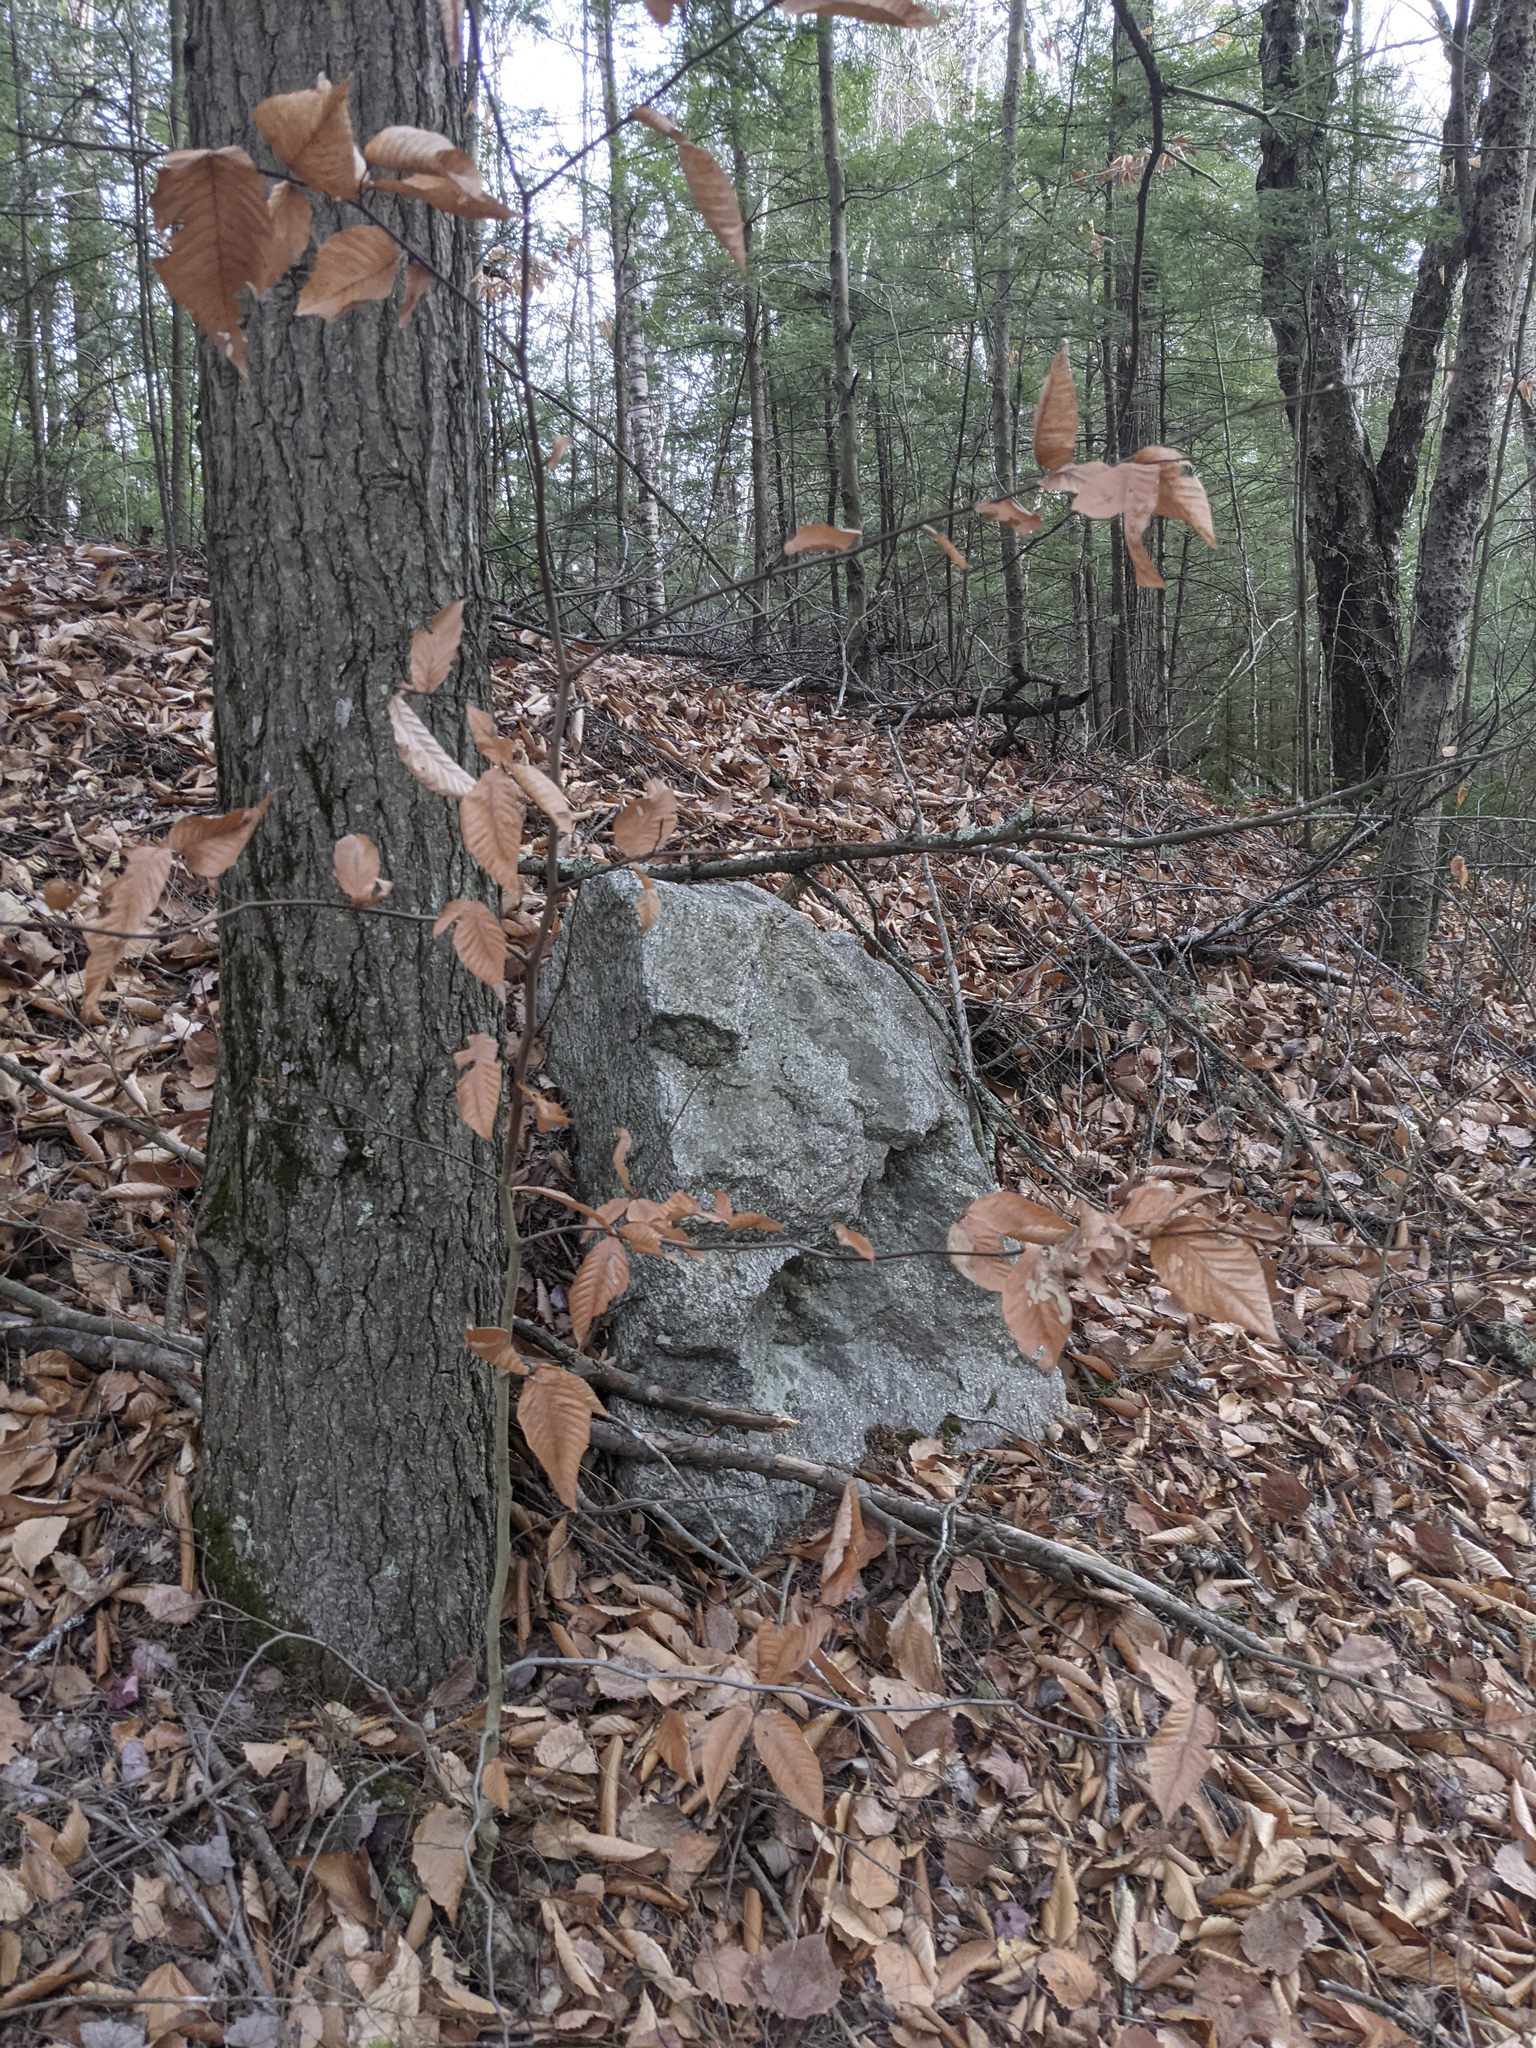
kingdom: Plantae
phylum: Tracheophyta
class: Magnoliopsida
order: Fagales
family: Fagaceae
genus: Fagus
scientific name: Fagus grandifolia
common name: American beech
